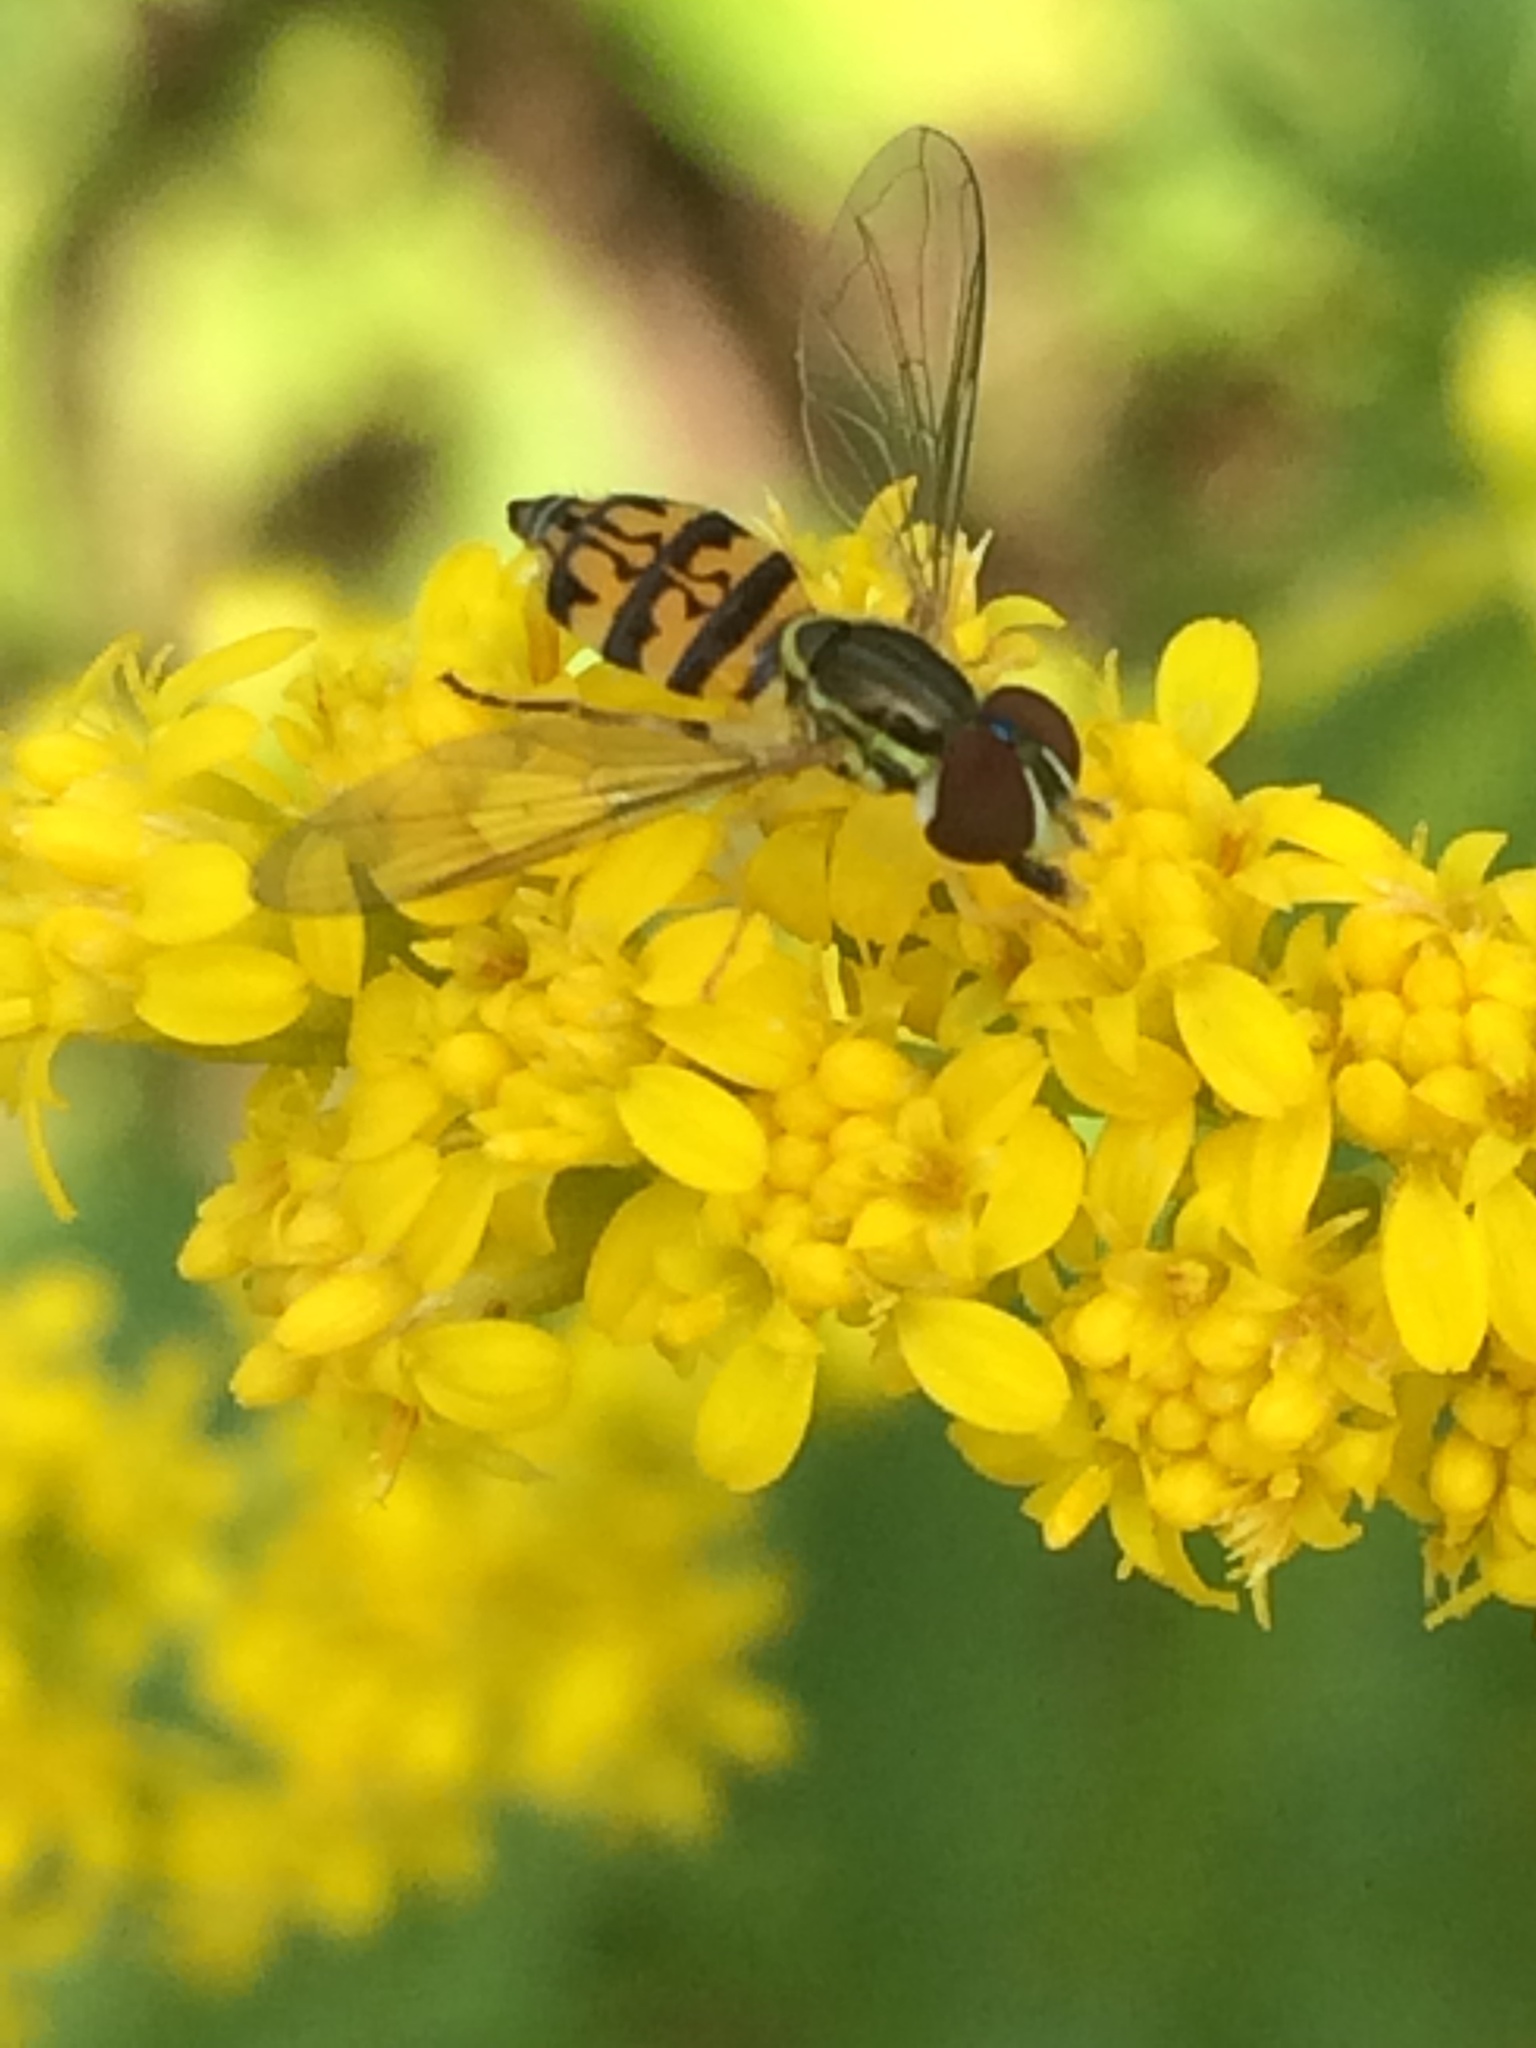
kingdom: Animalia
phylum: Arthropoda
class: Insecta
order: Diptera
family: Syrphidae
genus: Toxomerus
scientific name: Toxomerus geminatus
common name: Eastern calligrapher
